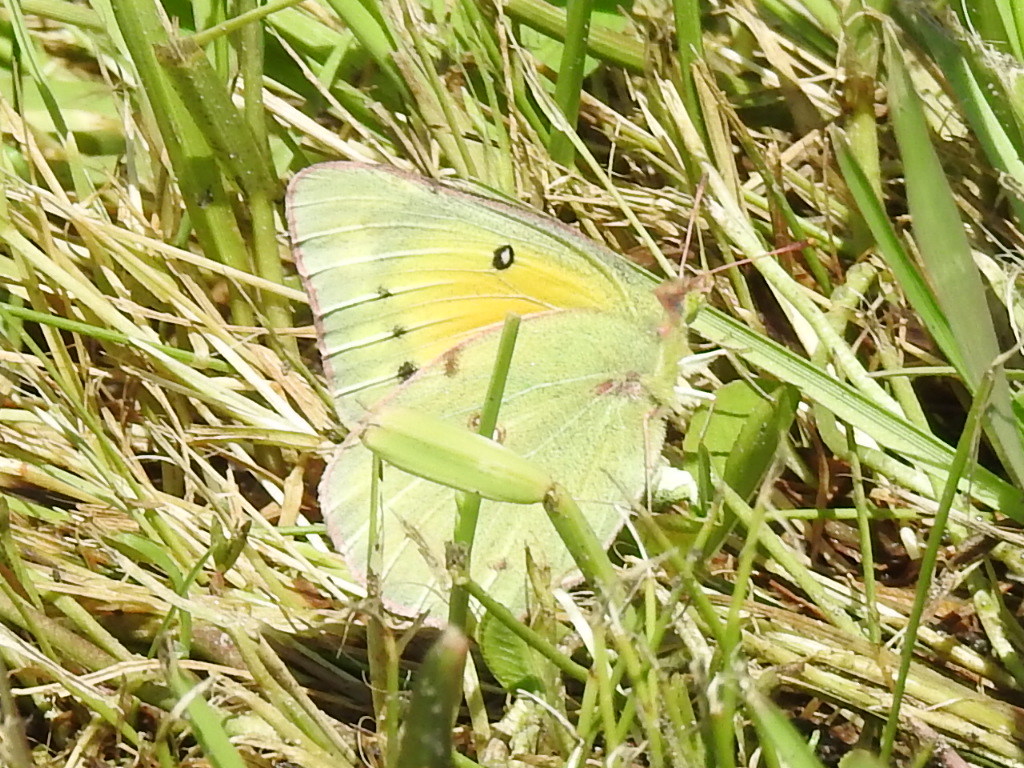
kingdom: Animalia
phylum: Arthropoda
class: Insecta
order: Lepidoptera
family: Pieridae
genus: Colias
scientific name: Colias eurytheme
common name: Alfalfa butterfly
